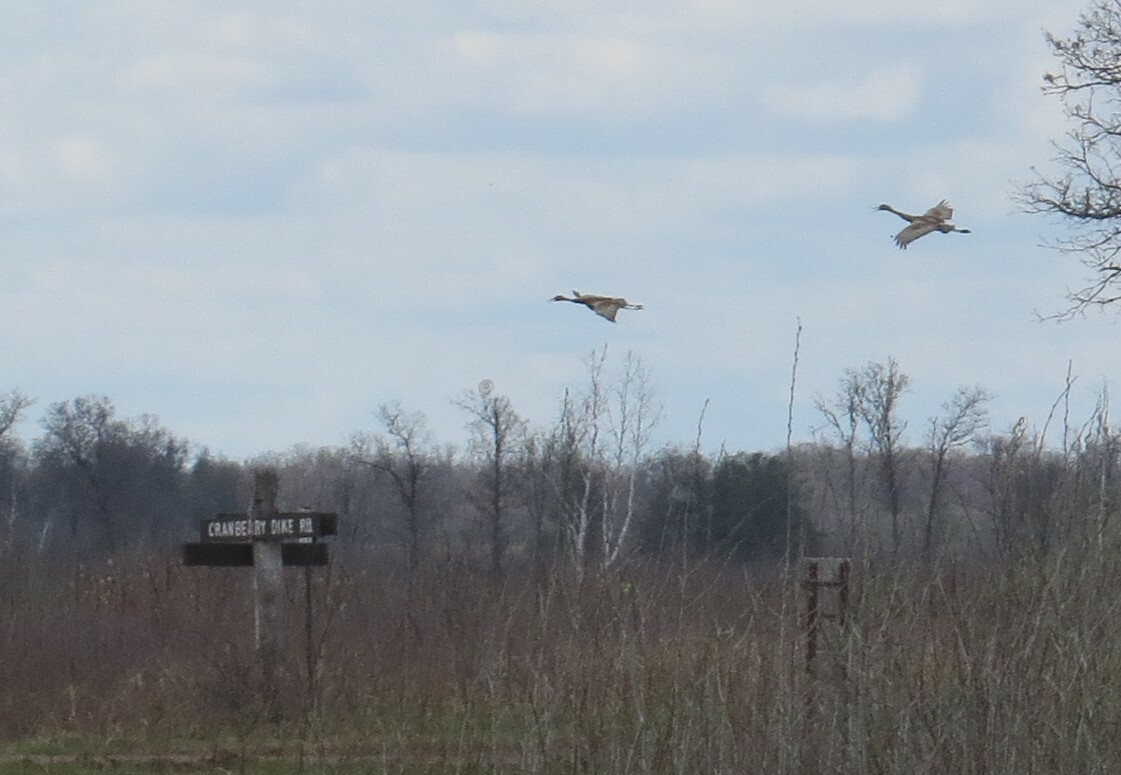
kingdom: Animalia
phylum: Chordata
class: Aves
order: Gruiformes
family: Gruidae
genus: Grus
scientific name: Grus canadensis
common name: Sandhill crane
